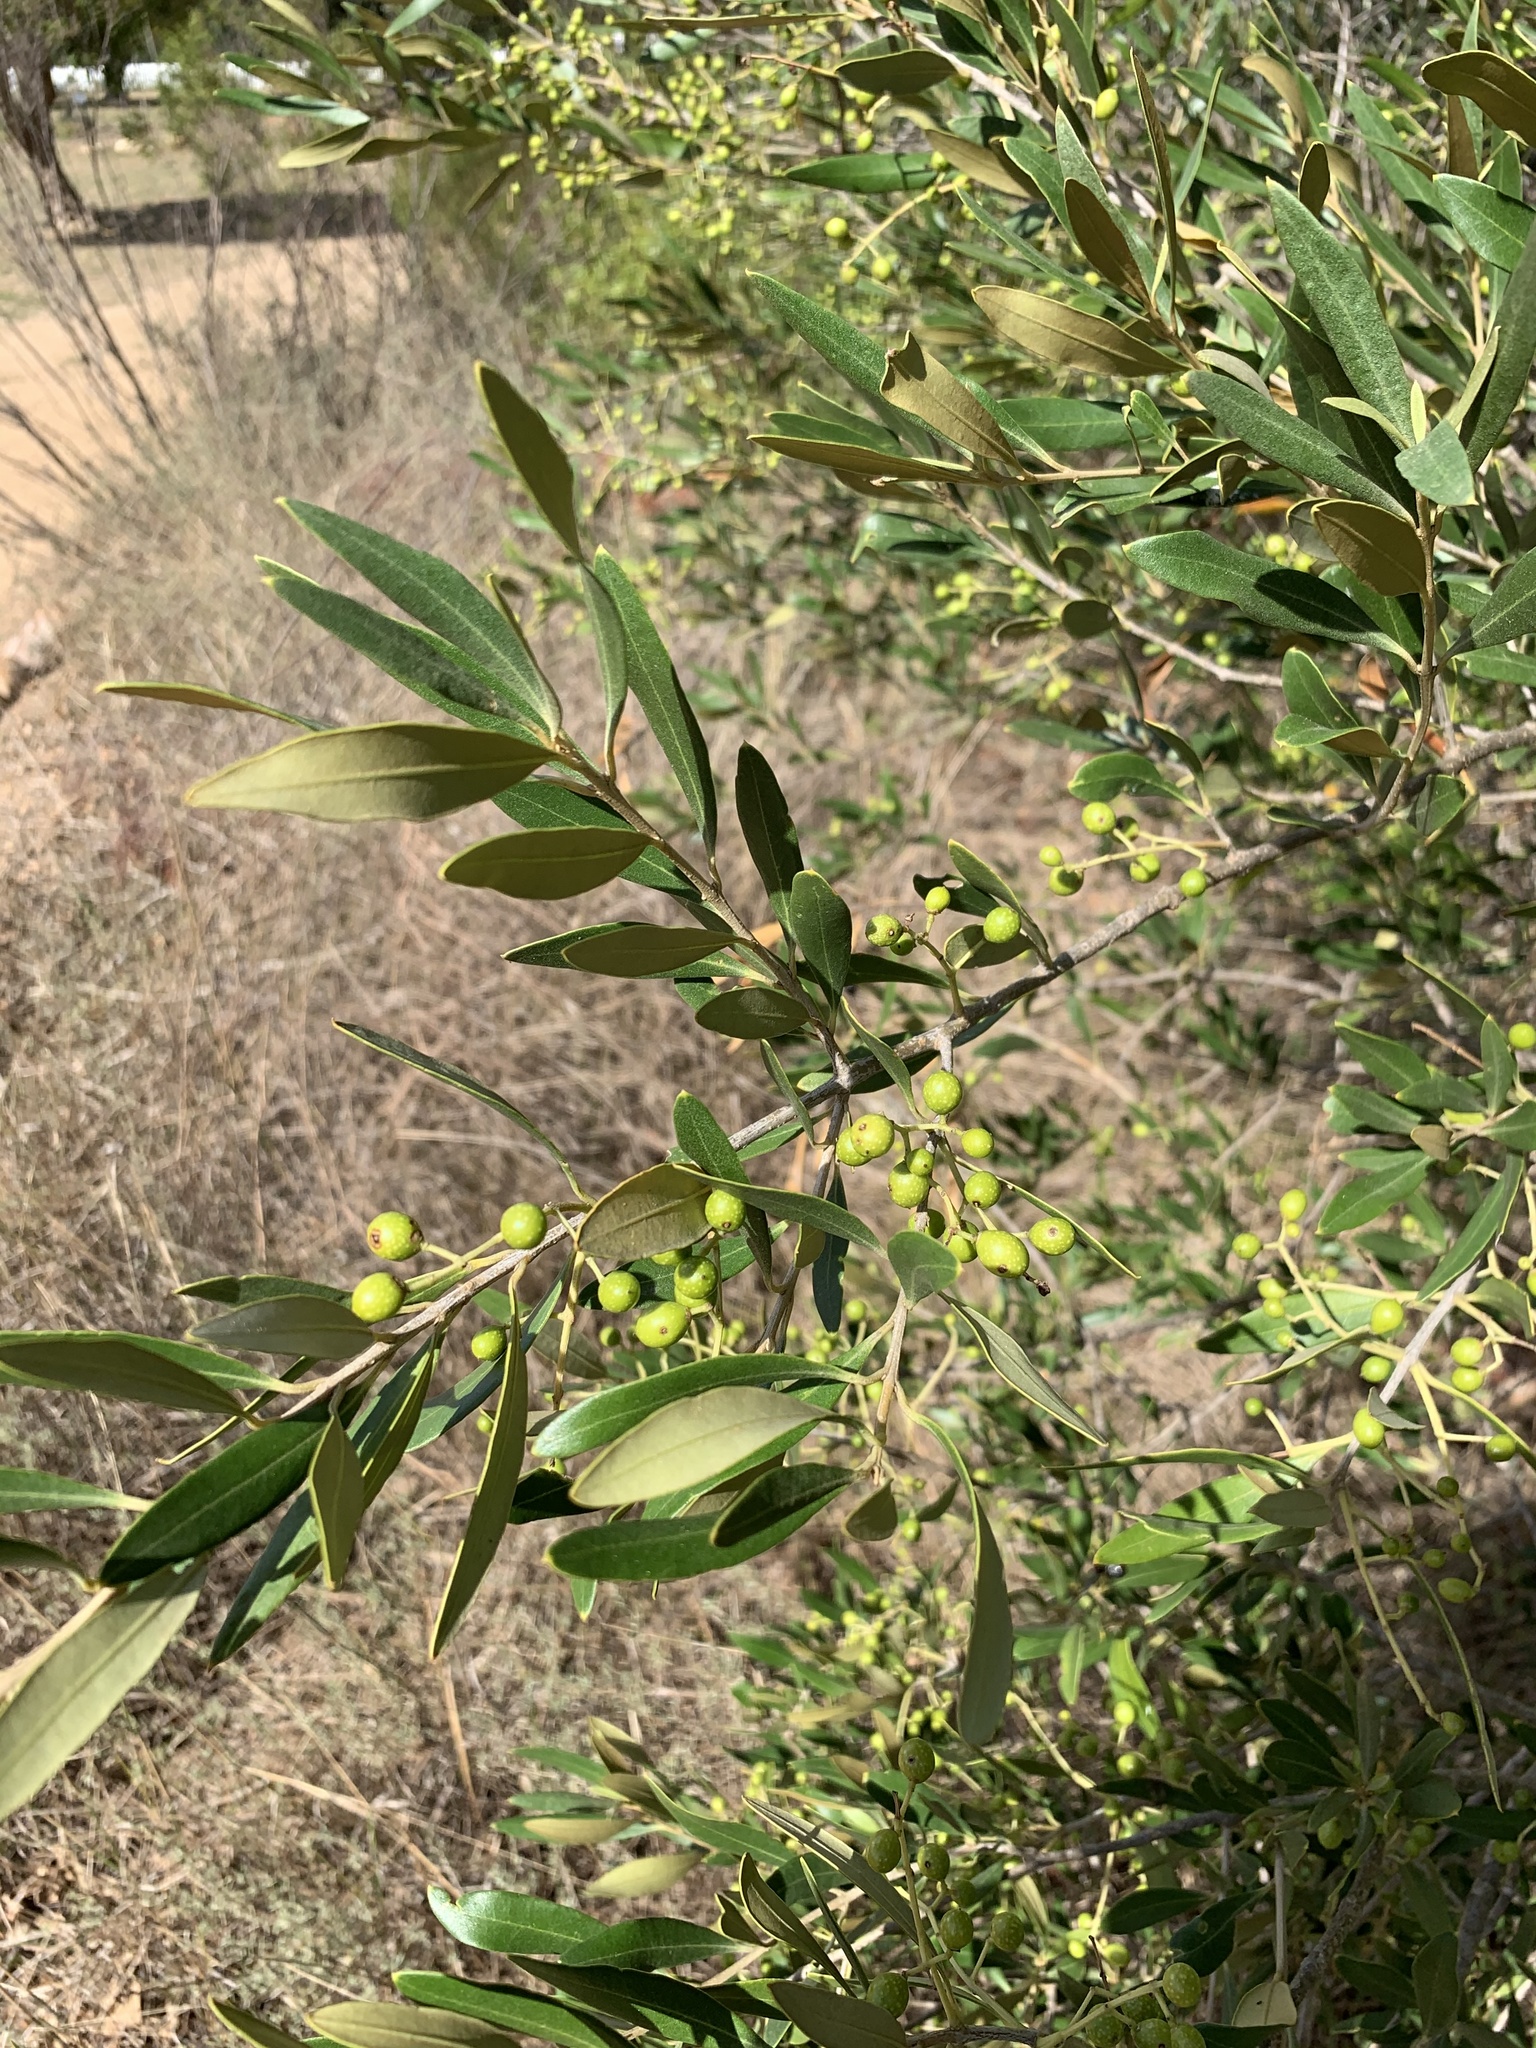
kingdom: Plantae
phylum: Tracheophyta
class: Magnoliopsida
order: Lamiales
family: Oleaceae
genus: Olea
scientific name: Olea europaea
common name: Olive
